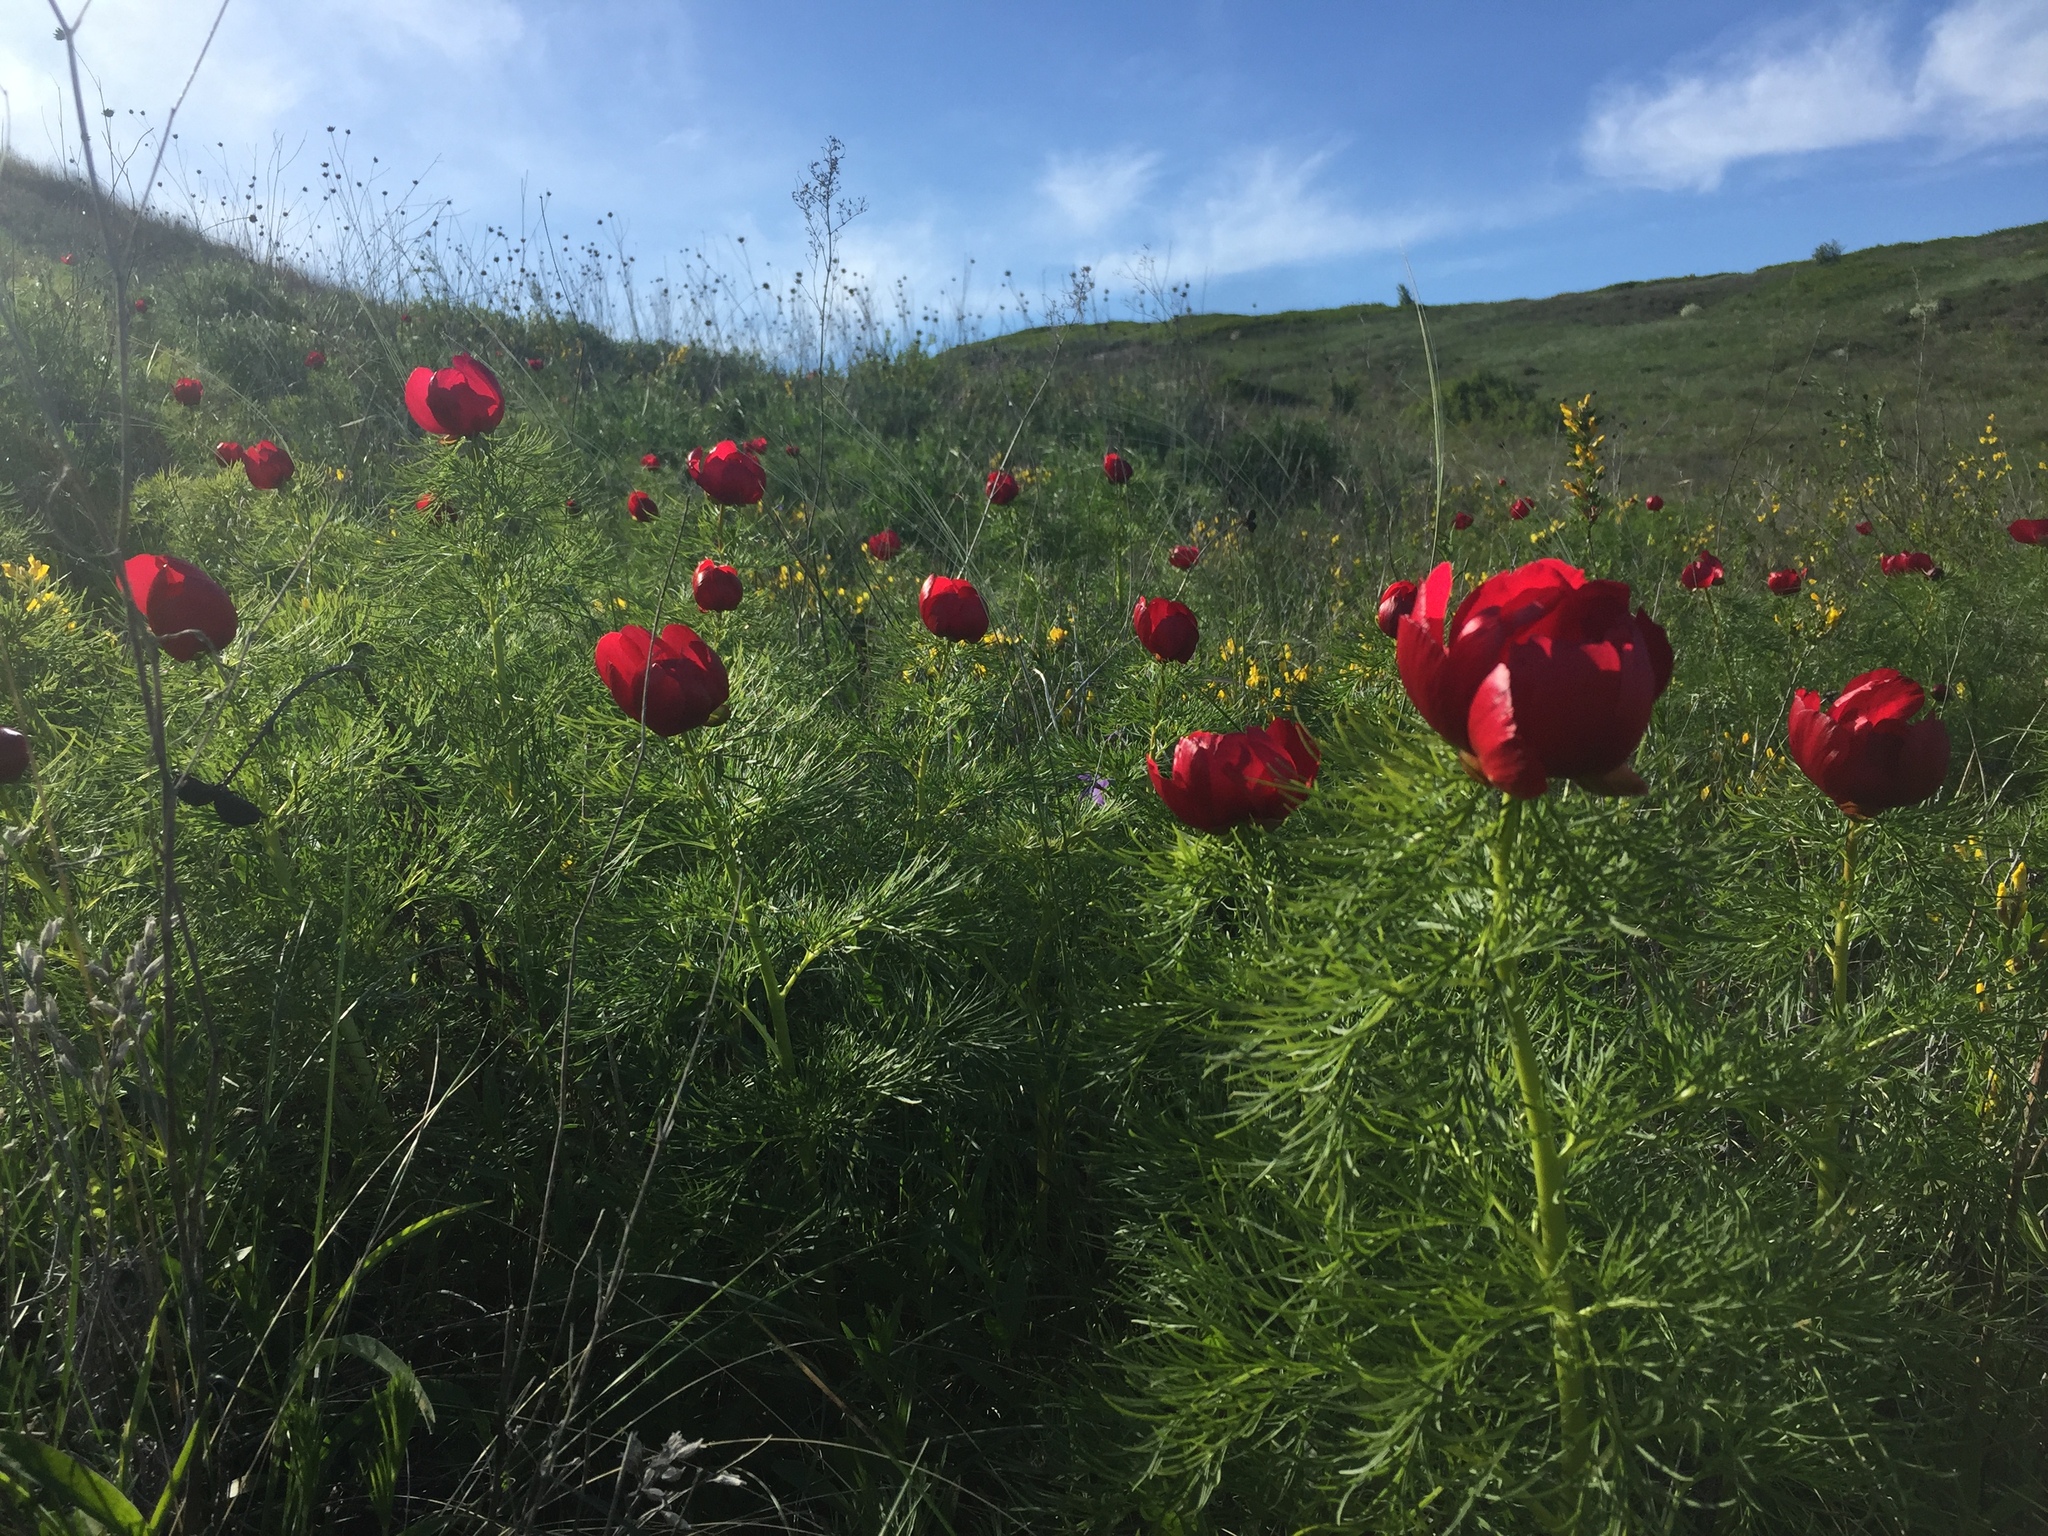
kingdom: Plantae
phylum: Tracheophyta
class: Magnoliopsida
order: Saxifragales
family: Paeoniaceae
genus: Paeonia
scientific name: Paeonia tenuifolia
